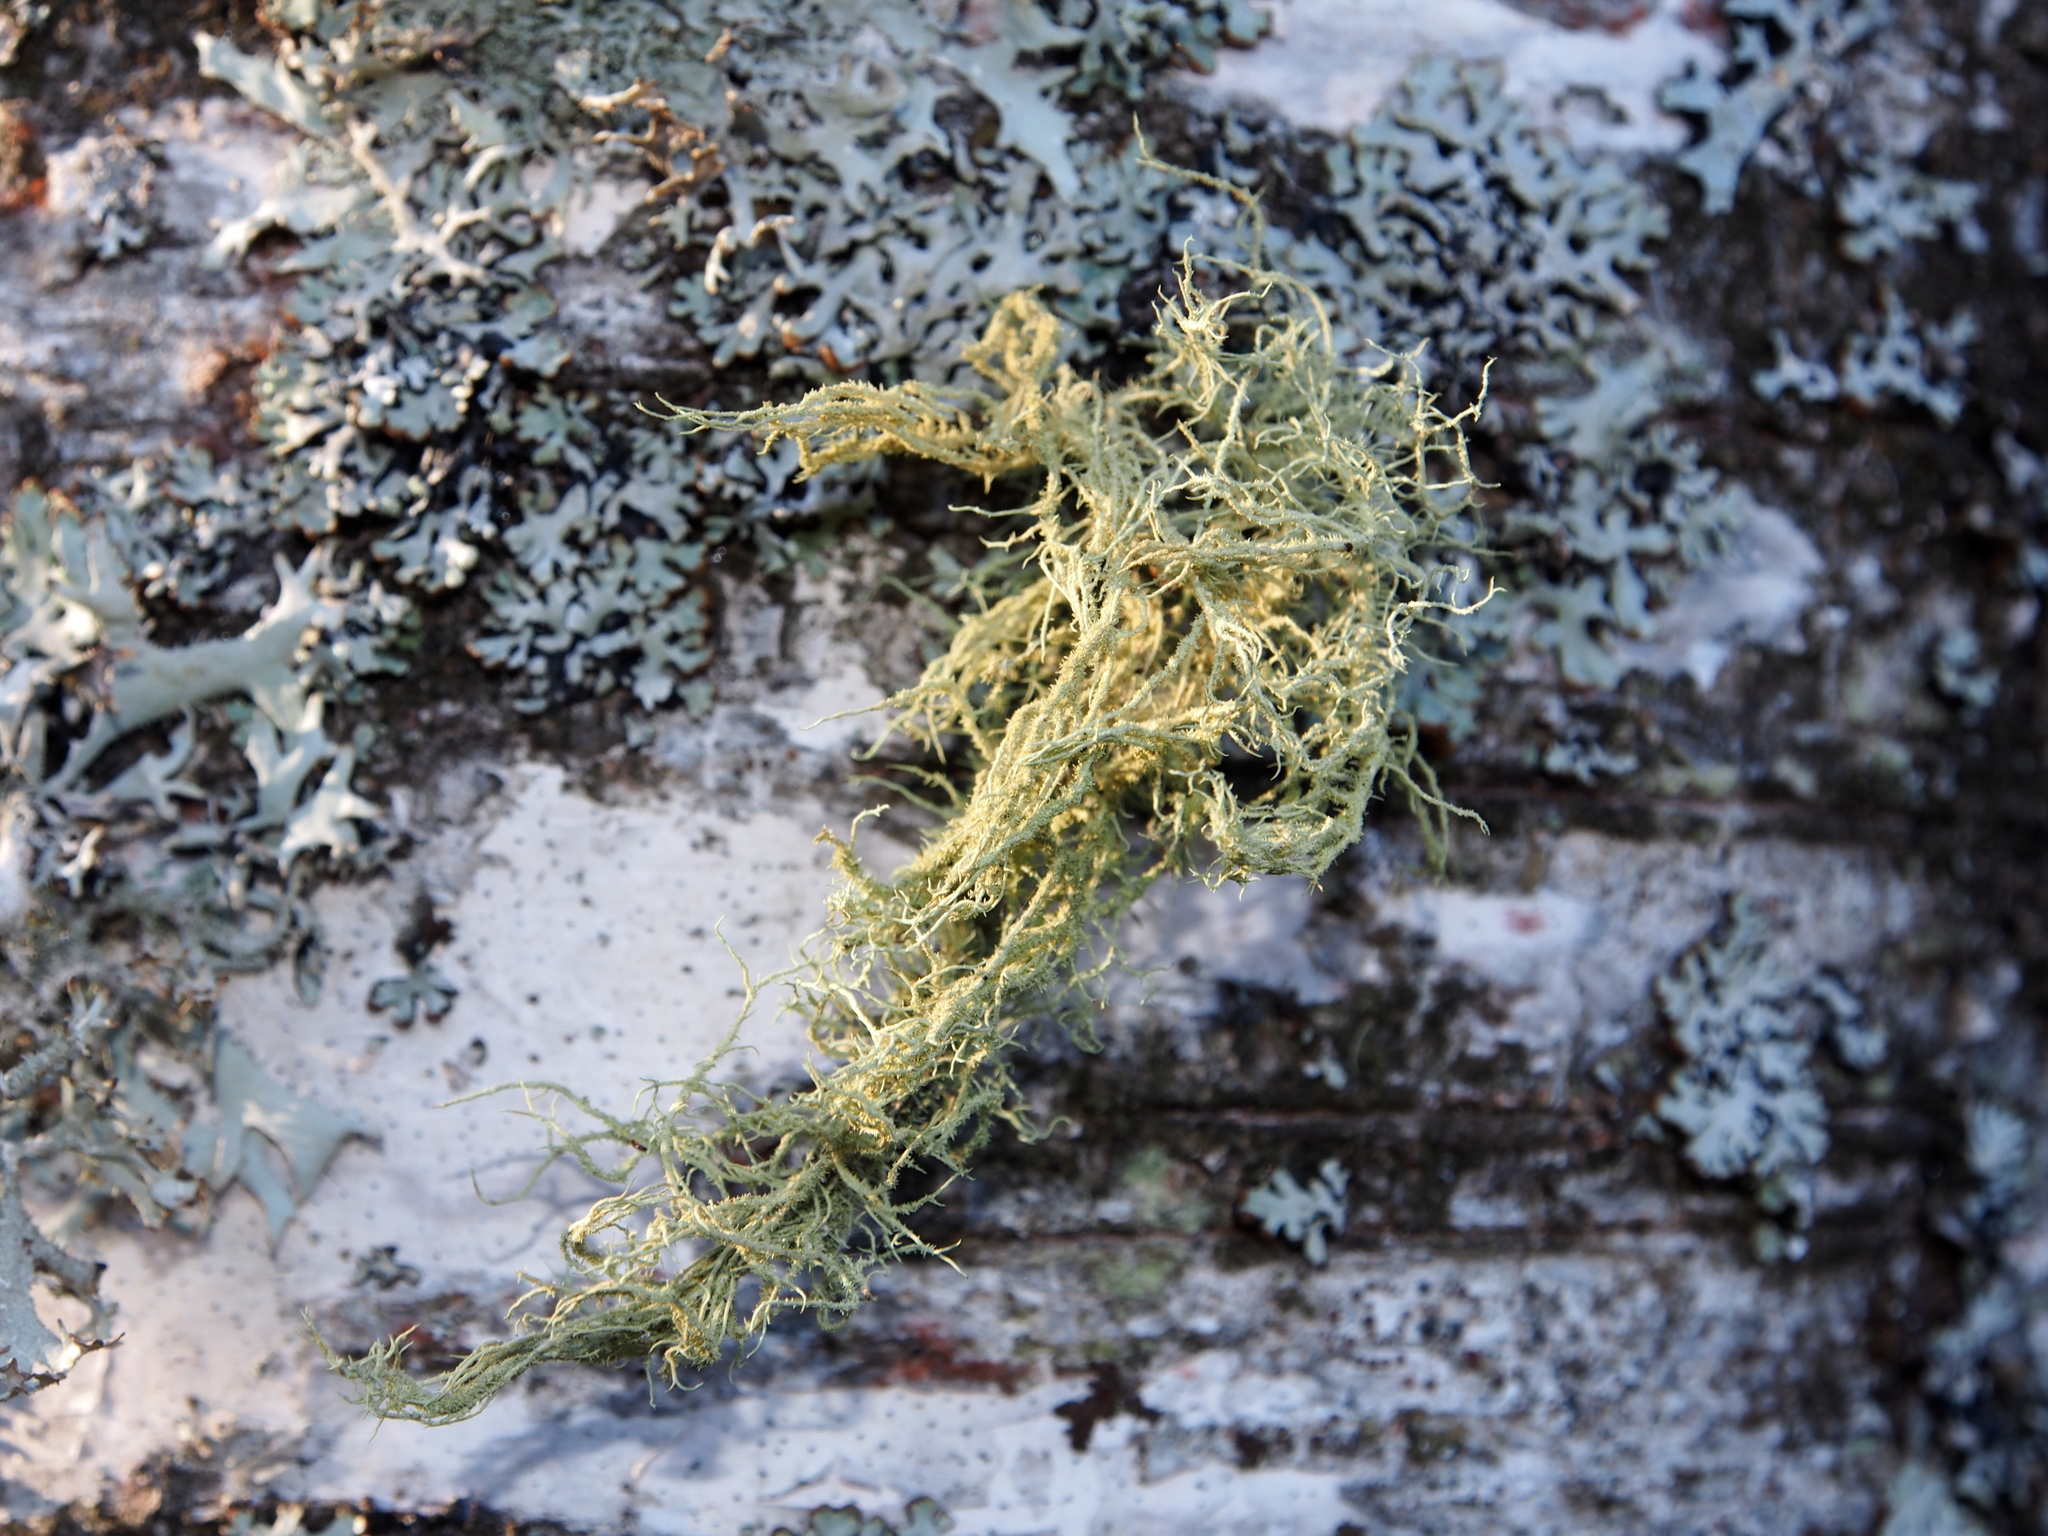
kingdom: Fungi
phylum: Ascomycota
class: Lecanoromycetes
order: Lecanorales
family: Parmeliaceae
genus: Usnea
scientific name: Usnea hirta
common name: Bristly beard lichen
